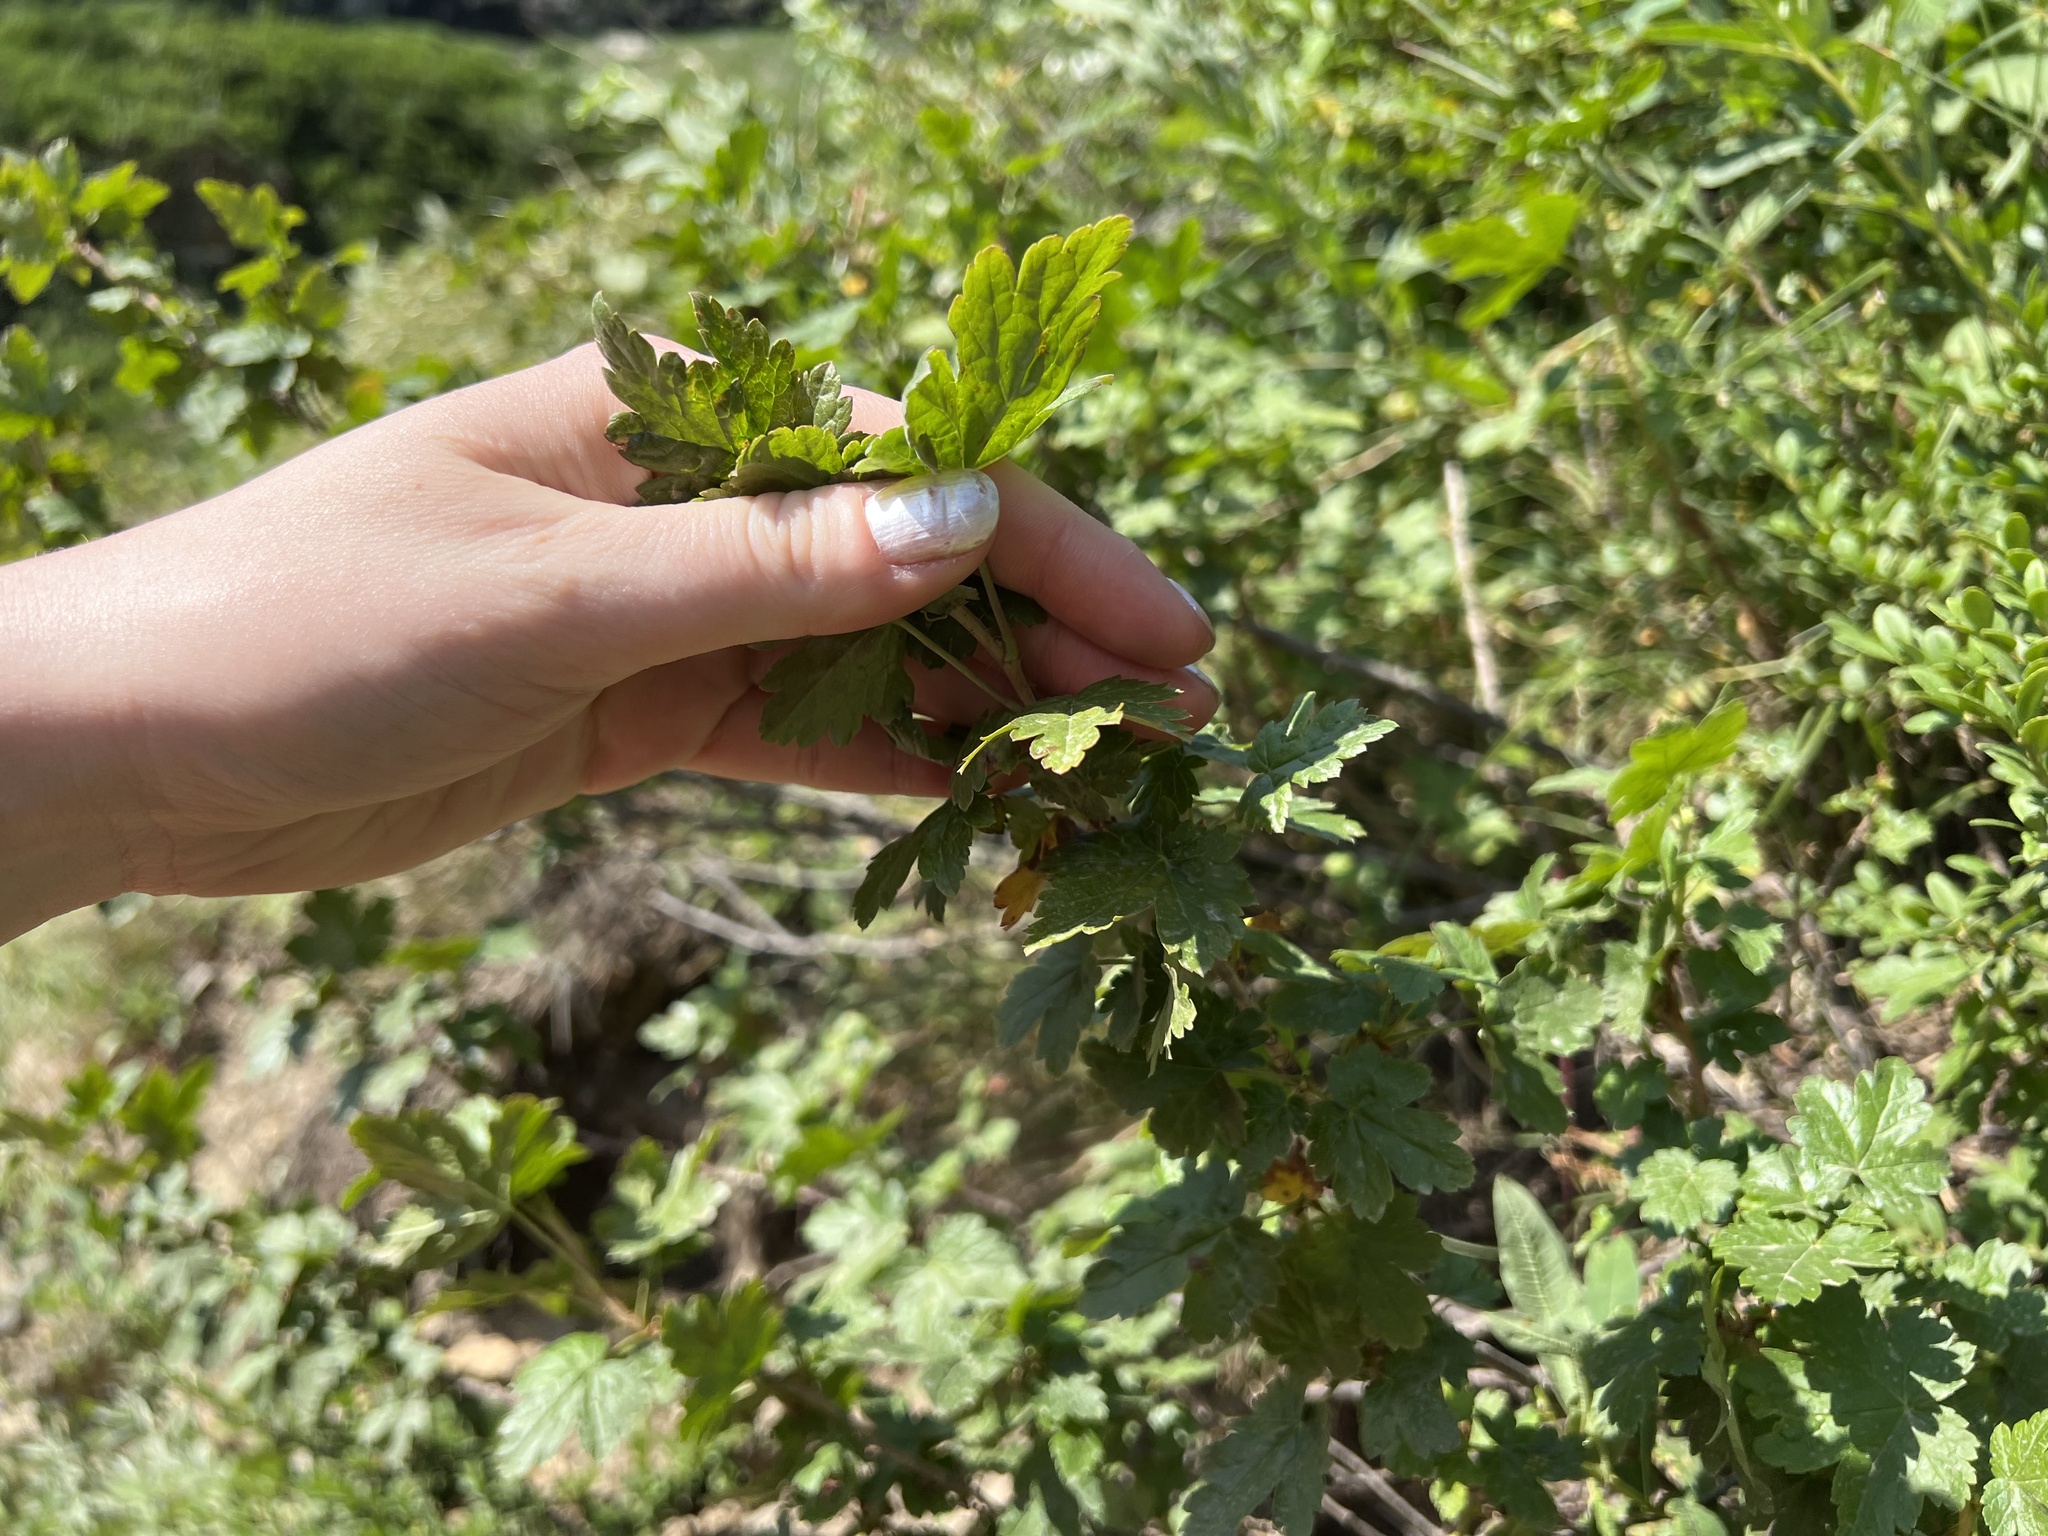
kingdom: Plantae
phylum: Tracheophyta
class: Magnoliopsida
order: Rosales
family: Rosaceae
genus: Rubus
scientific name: Rubus parviflorus
